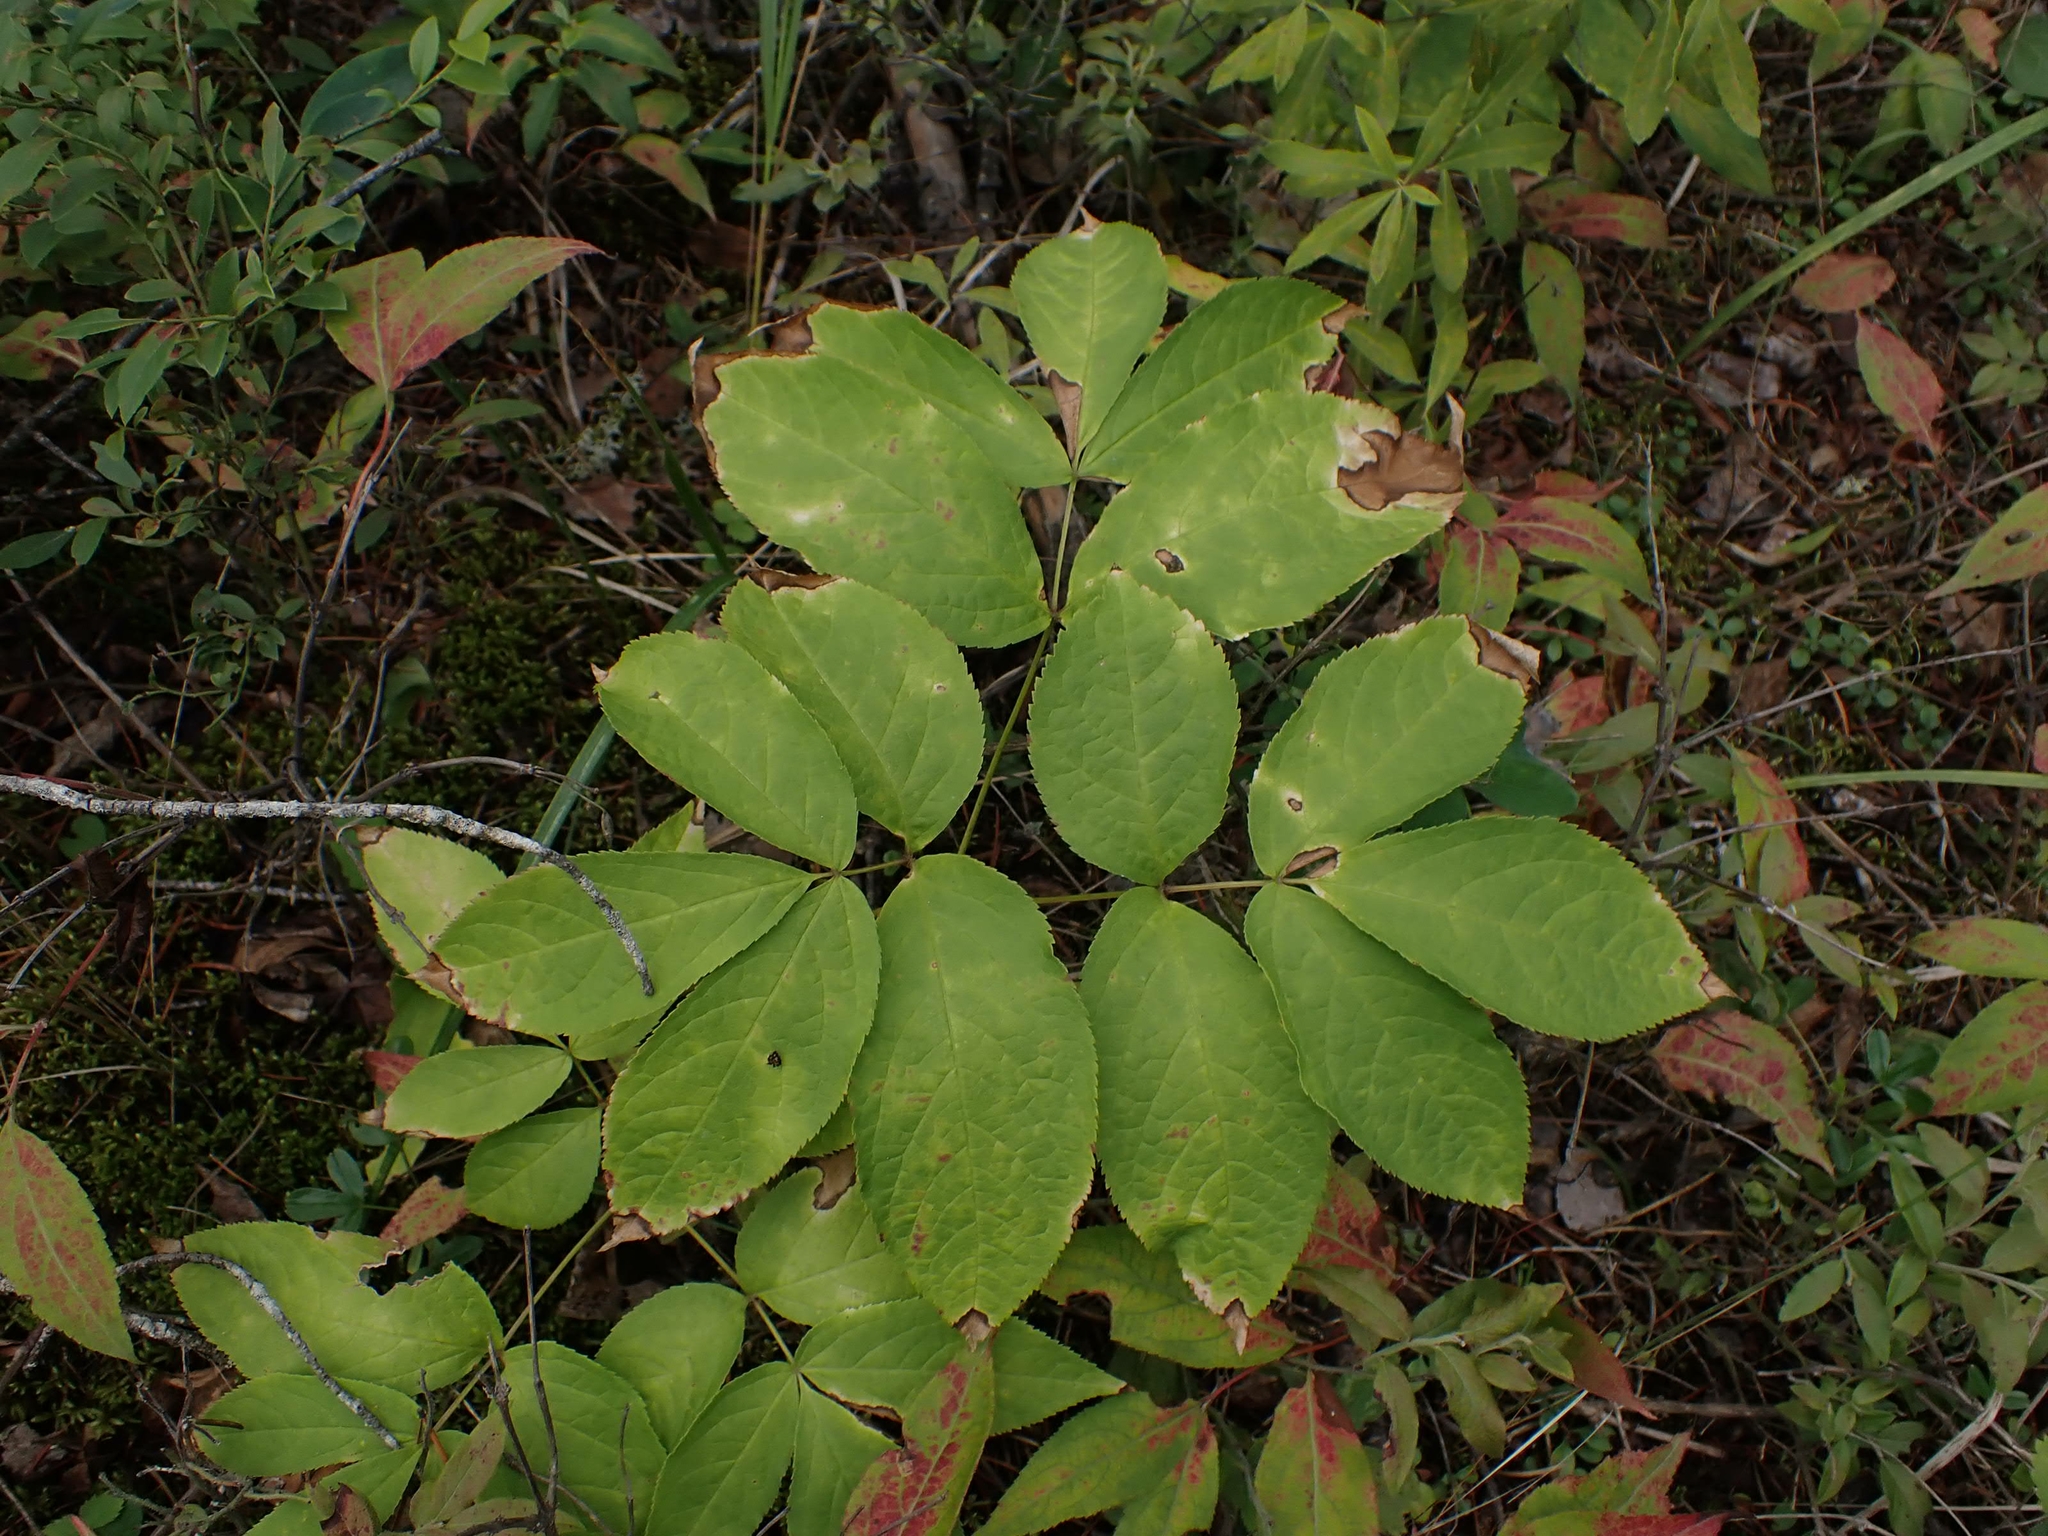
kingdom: Plantae
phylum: Tracheophyta
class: Magnoliopsida
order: Apiales
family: Araliaceae
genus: Aralia
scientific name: Aralia nudicaulis
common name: Wild sarsaparilla
